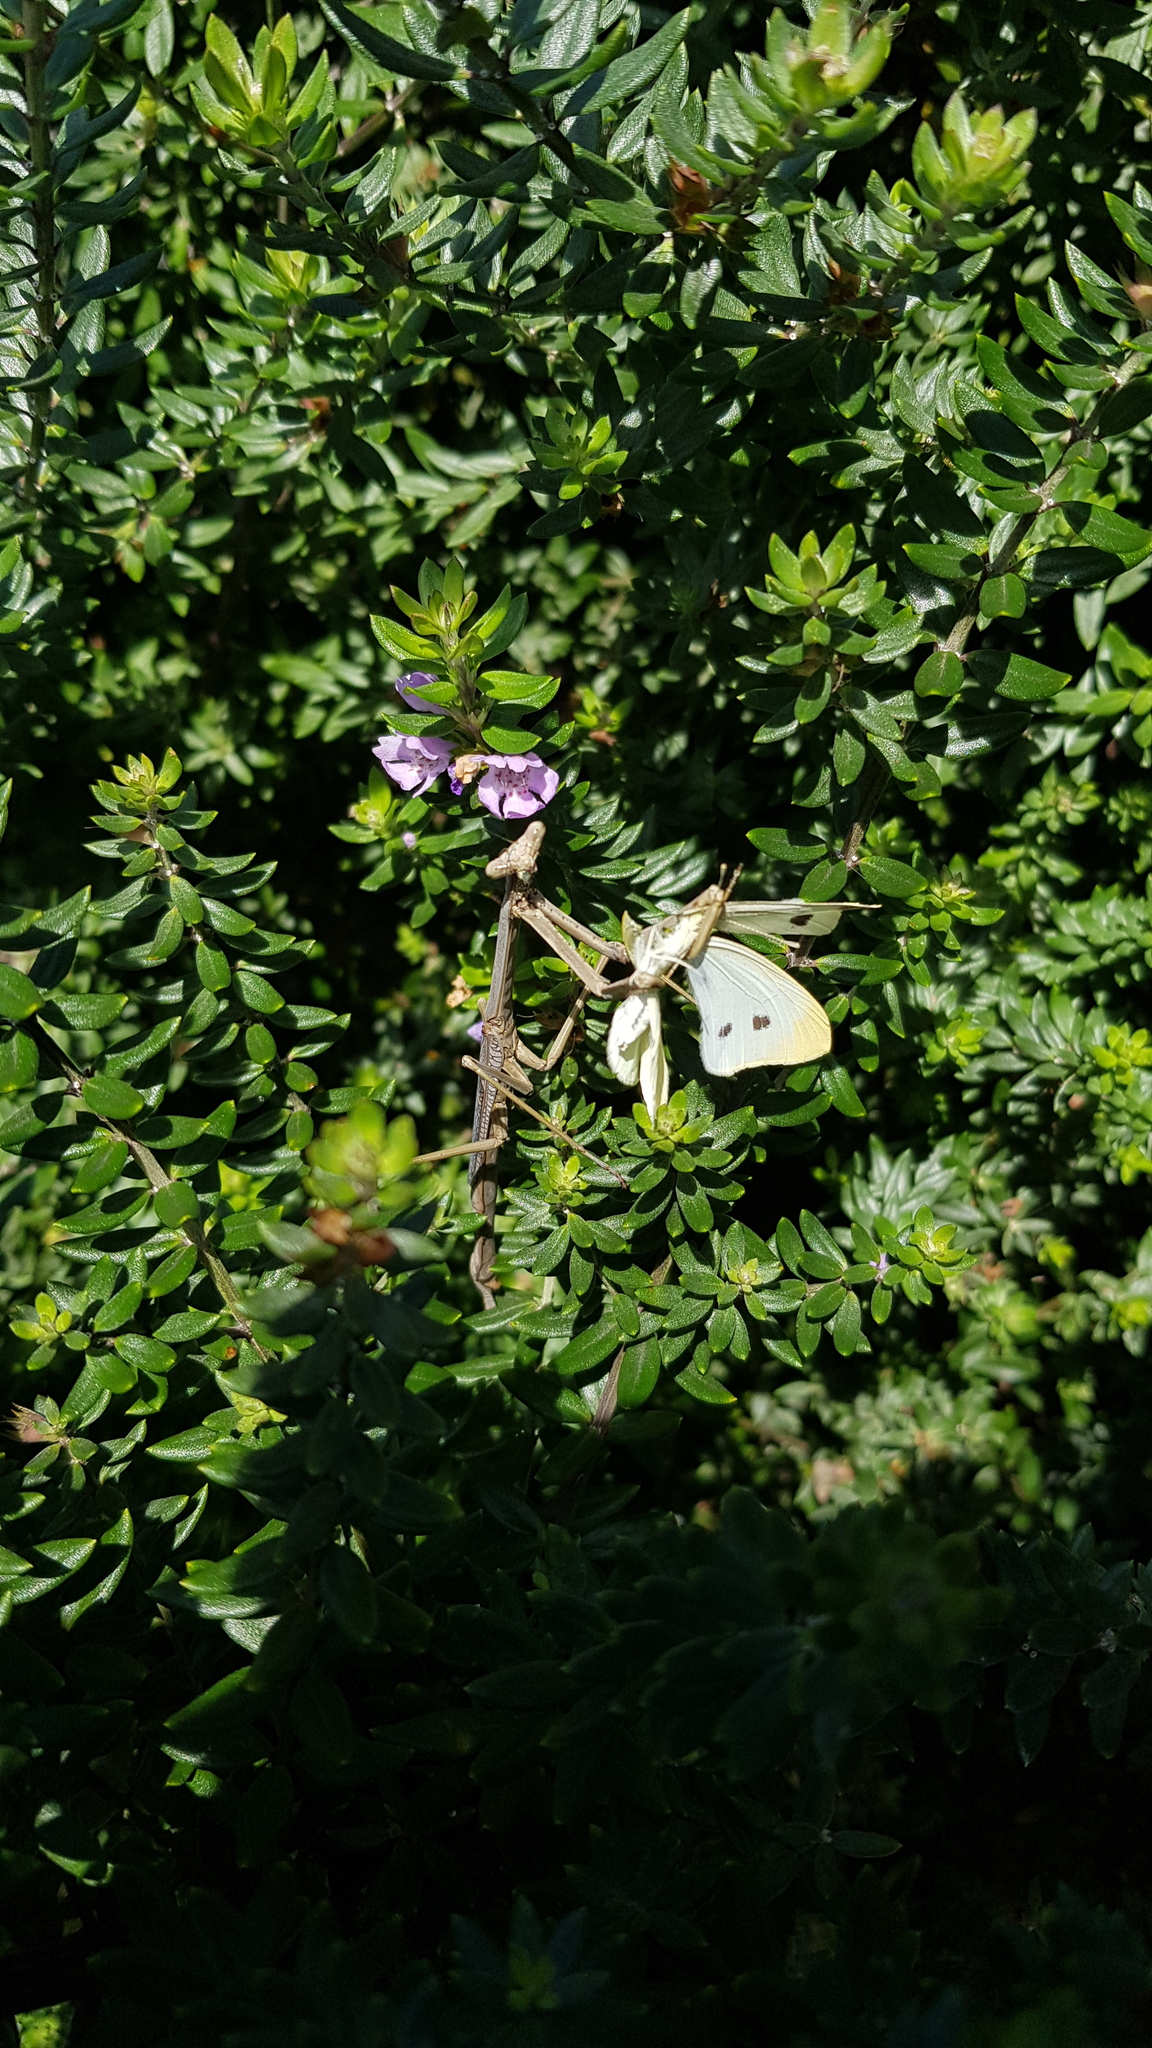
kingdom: Animalia
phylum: Arthropoda
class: Insecta
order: Mantodea
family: Mantidae
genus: Archimantis
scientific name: Archimantis latistyla
